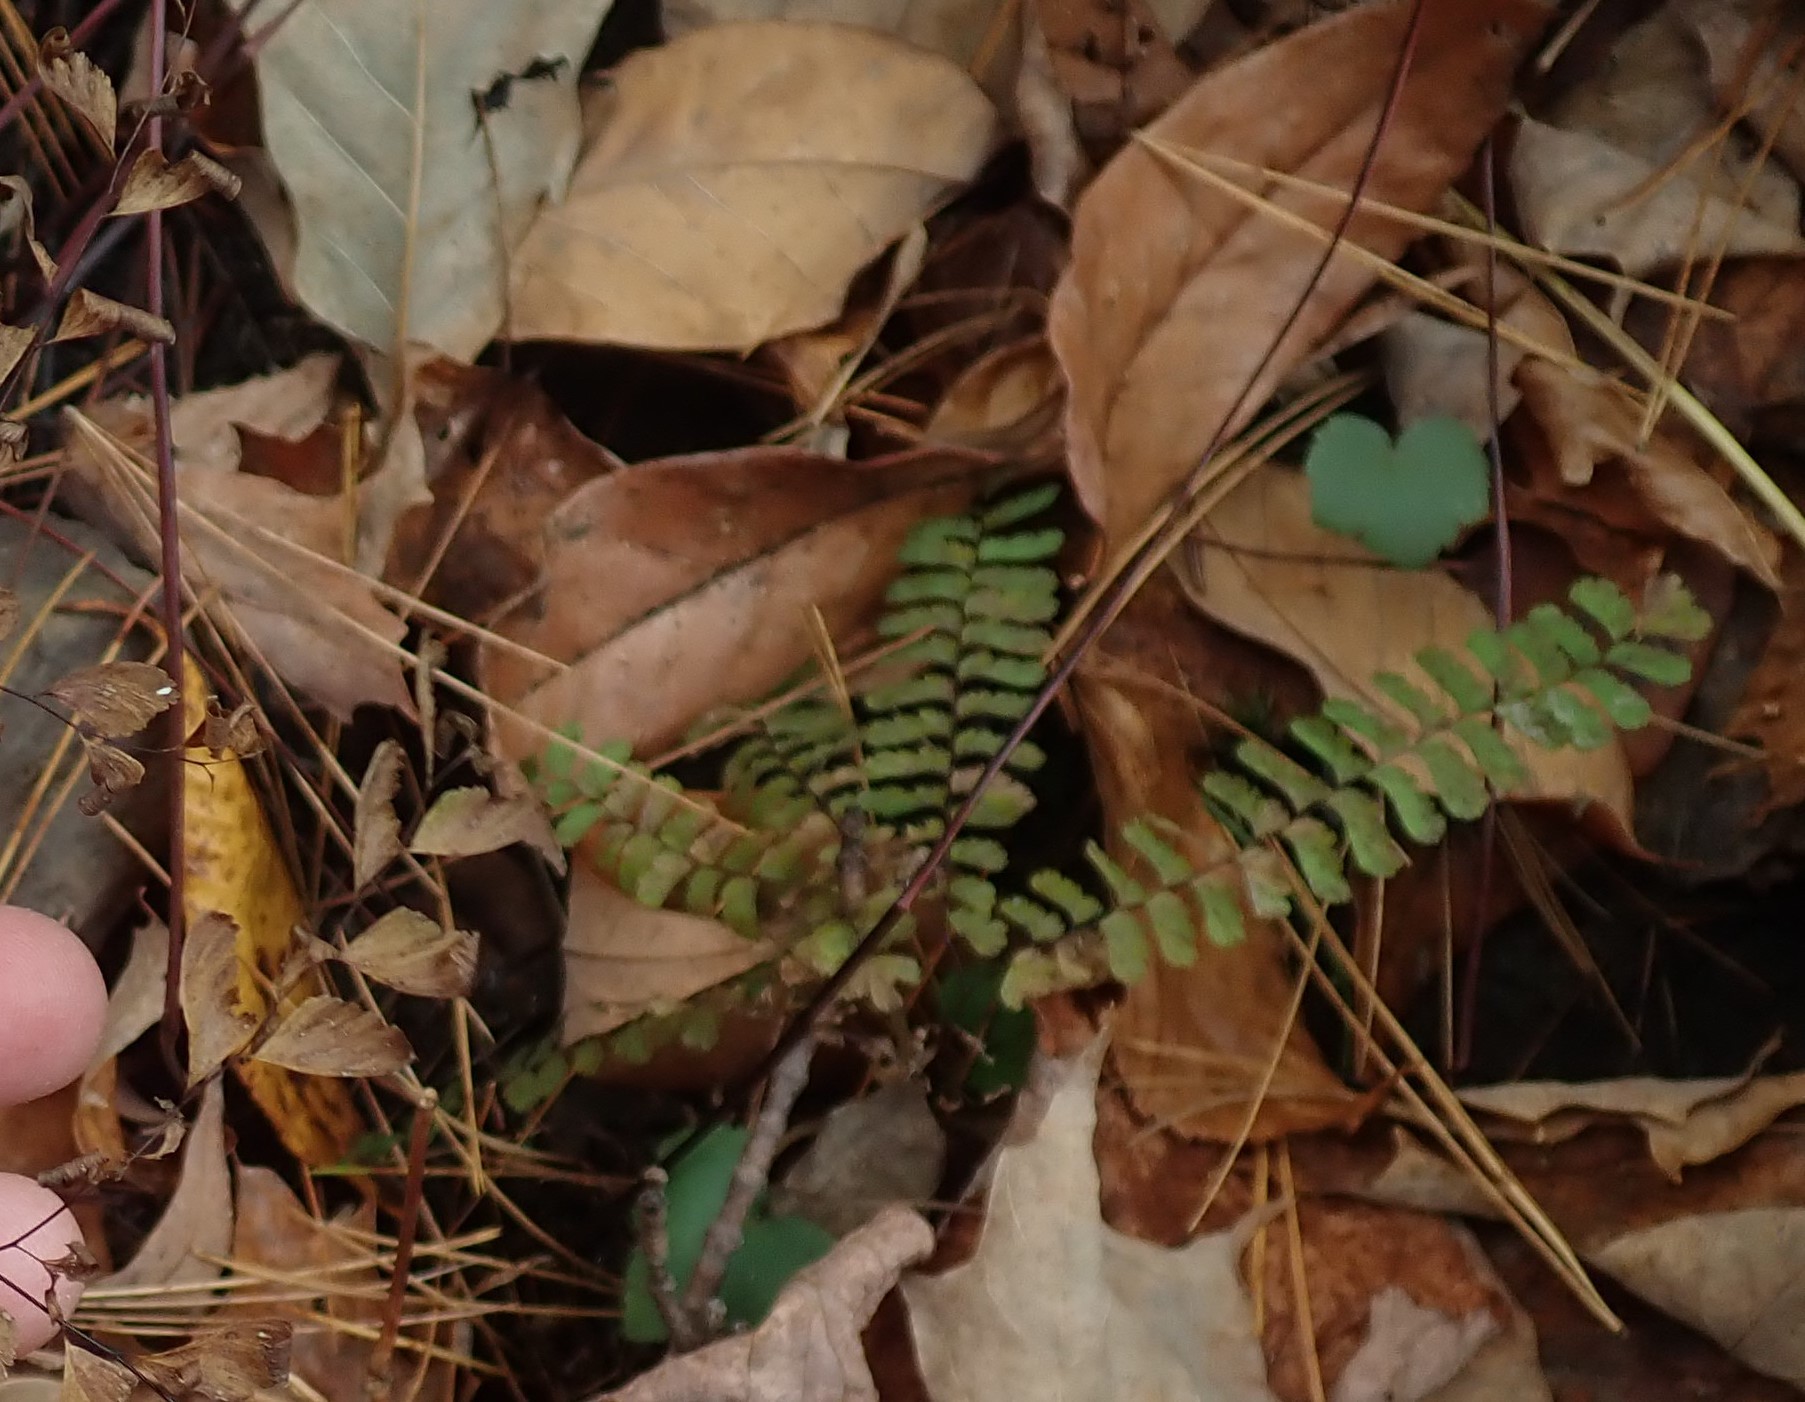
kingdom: Plantae
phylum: Tracheophyta
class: Polypodiopsida
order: Polypodiales
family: Aspleniaceae
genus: Asplenium
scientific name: Asplenium platyneuron
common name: Ebony spleenwort
